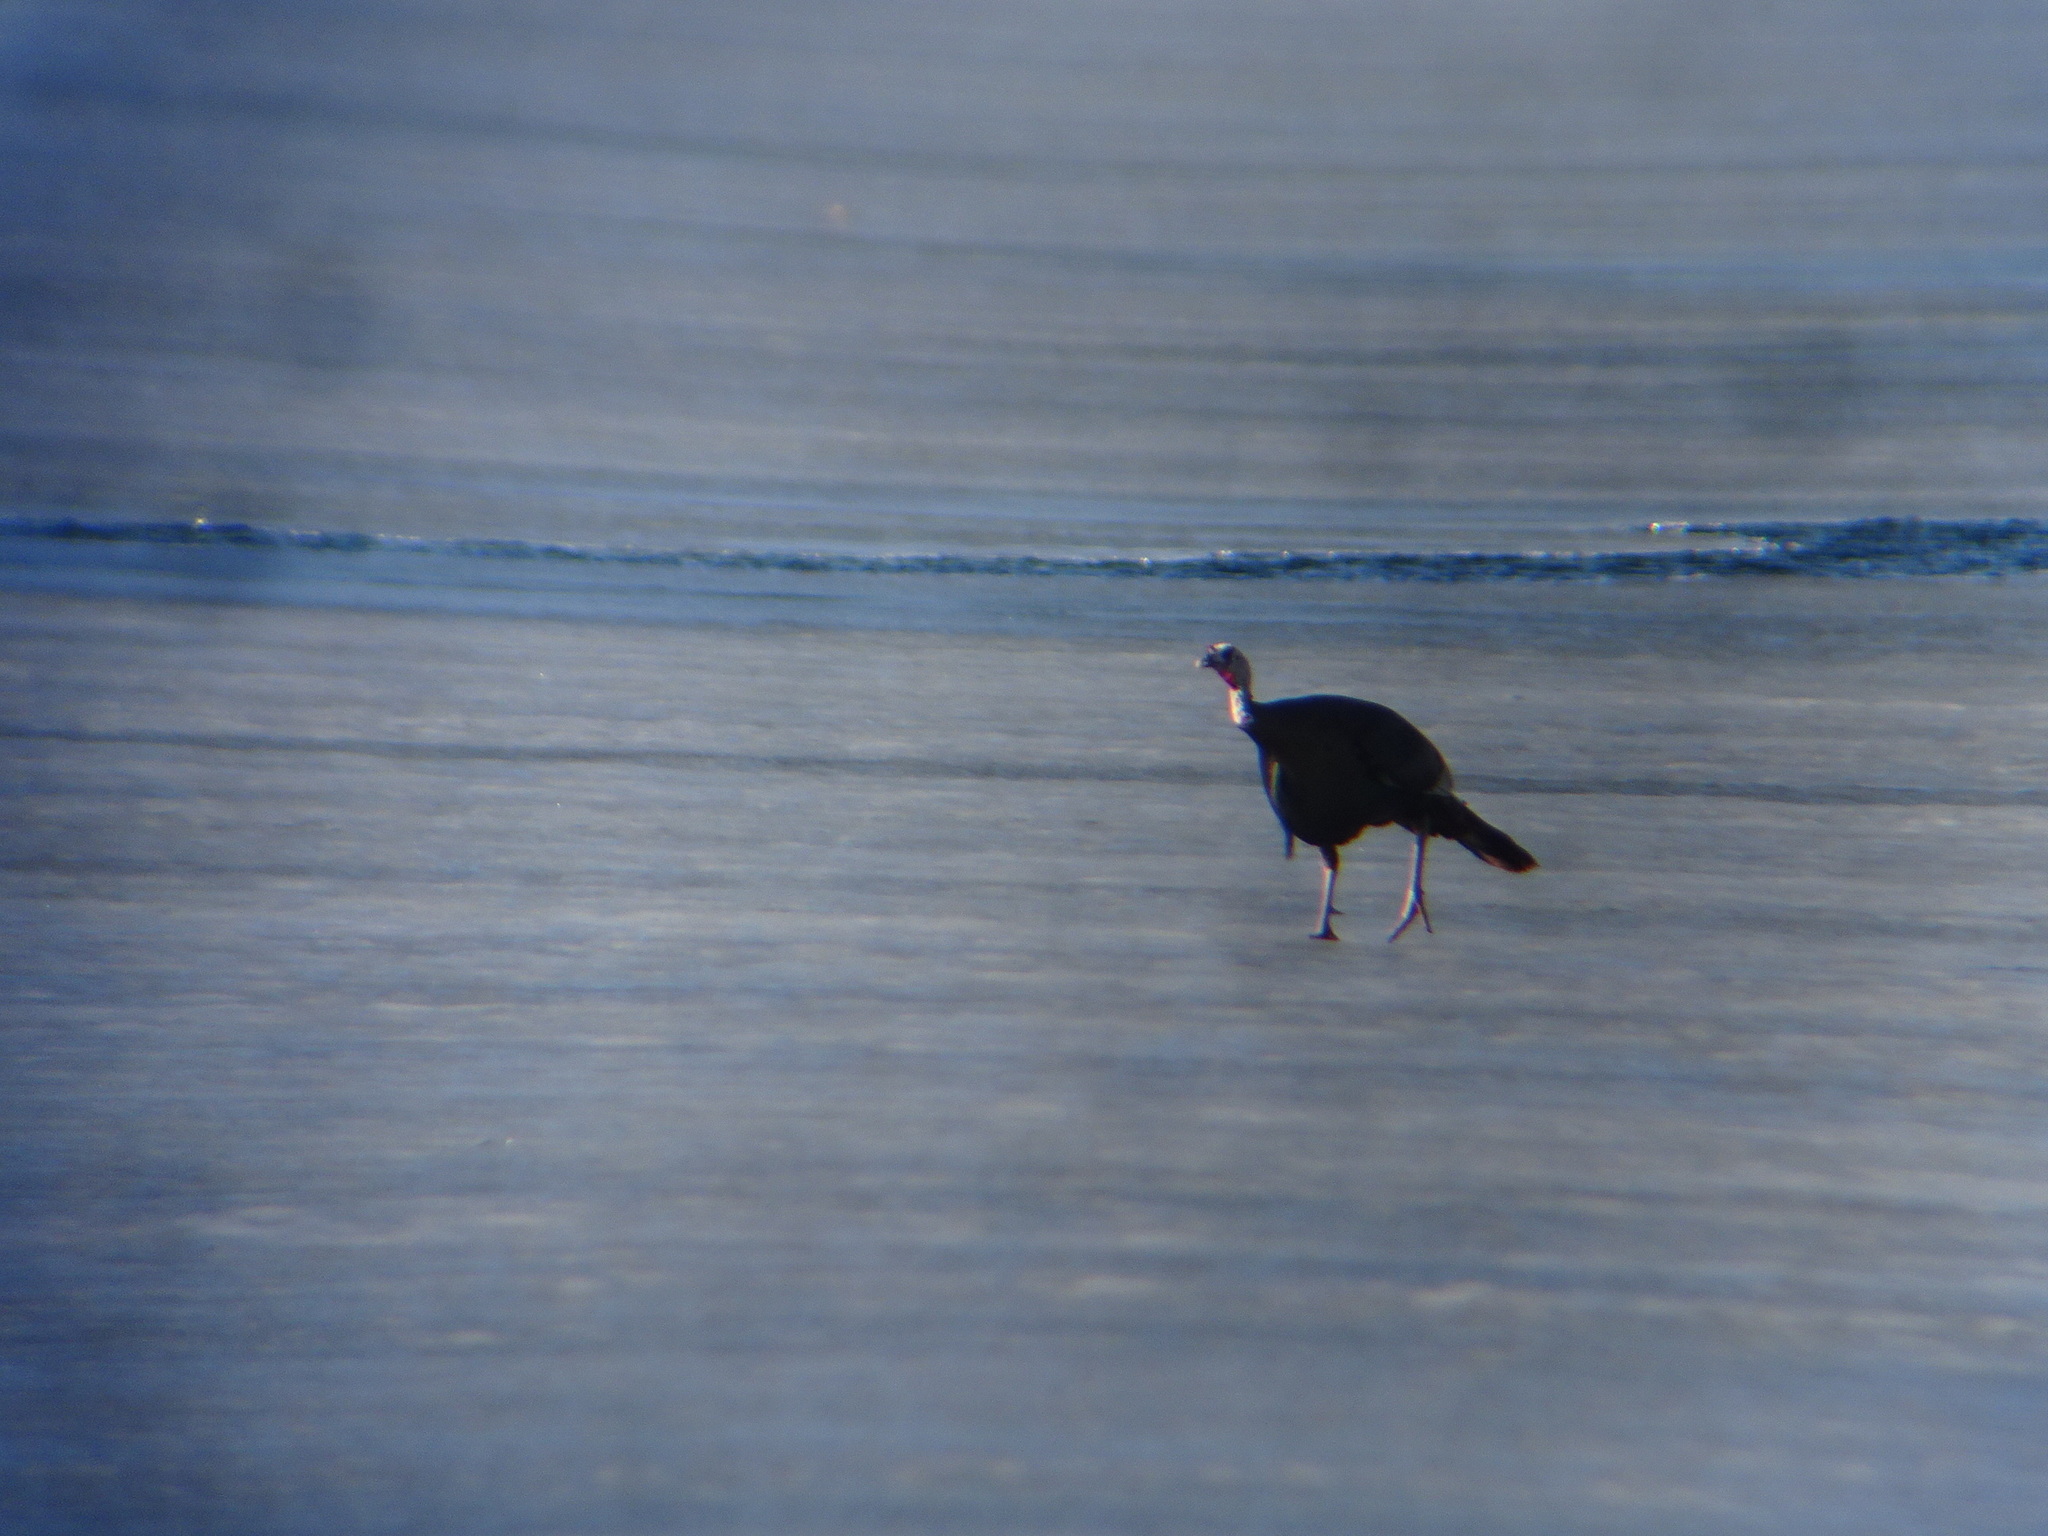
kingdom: Animalia
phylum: Chordata
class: Aves
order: Galliformes
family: Phasianidae
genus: Meleagris
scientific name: Meleagris gallopavo
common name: Wild turkey
